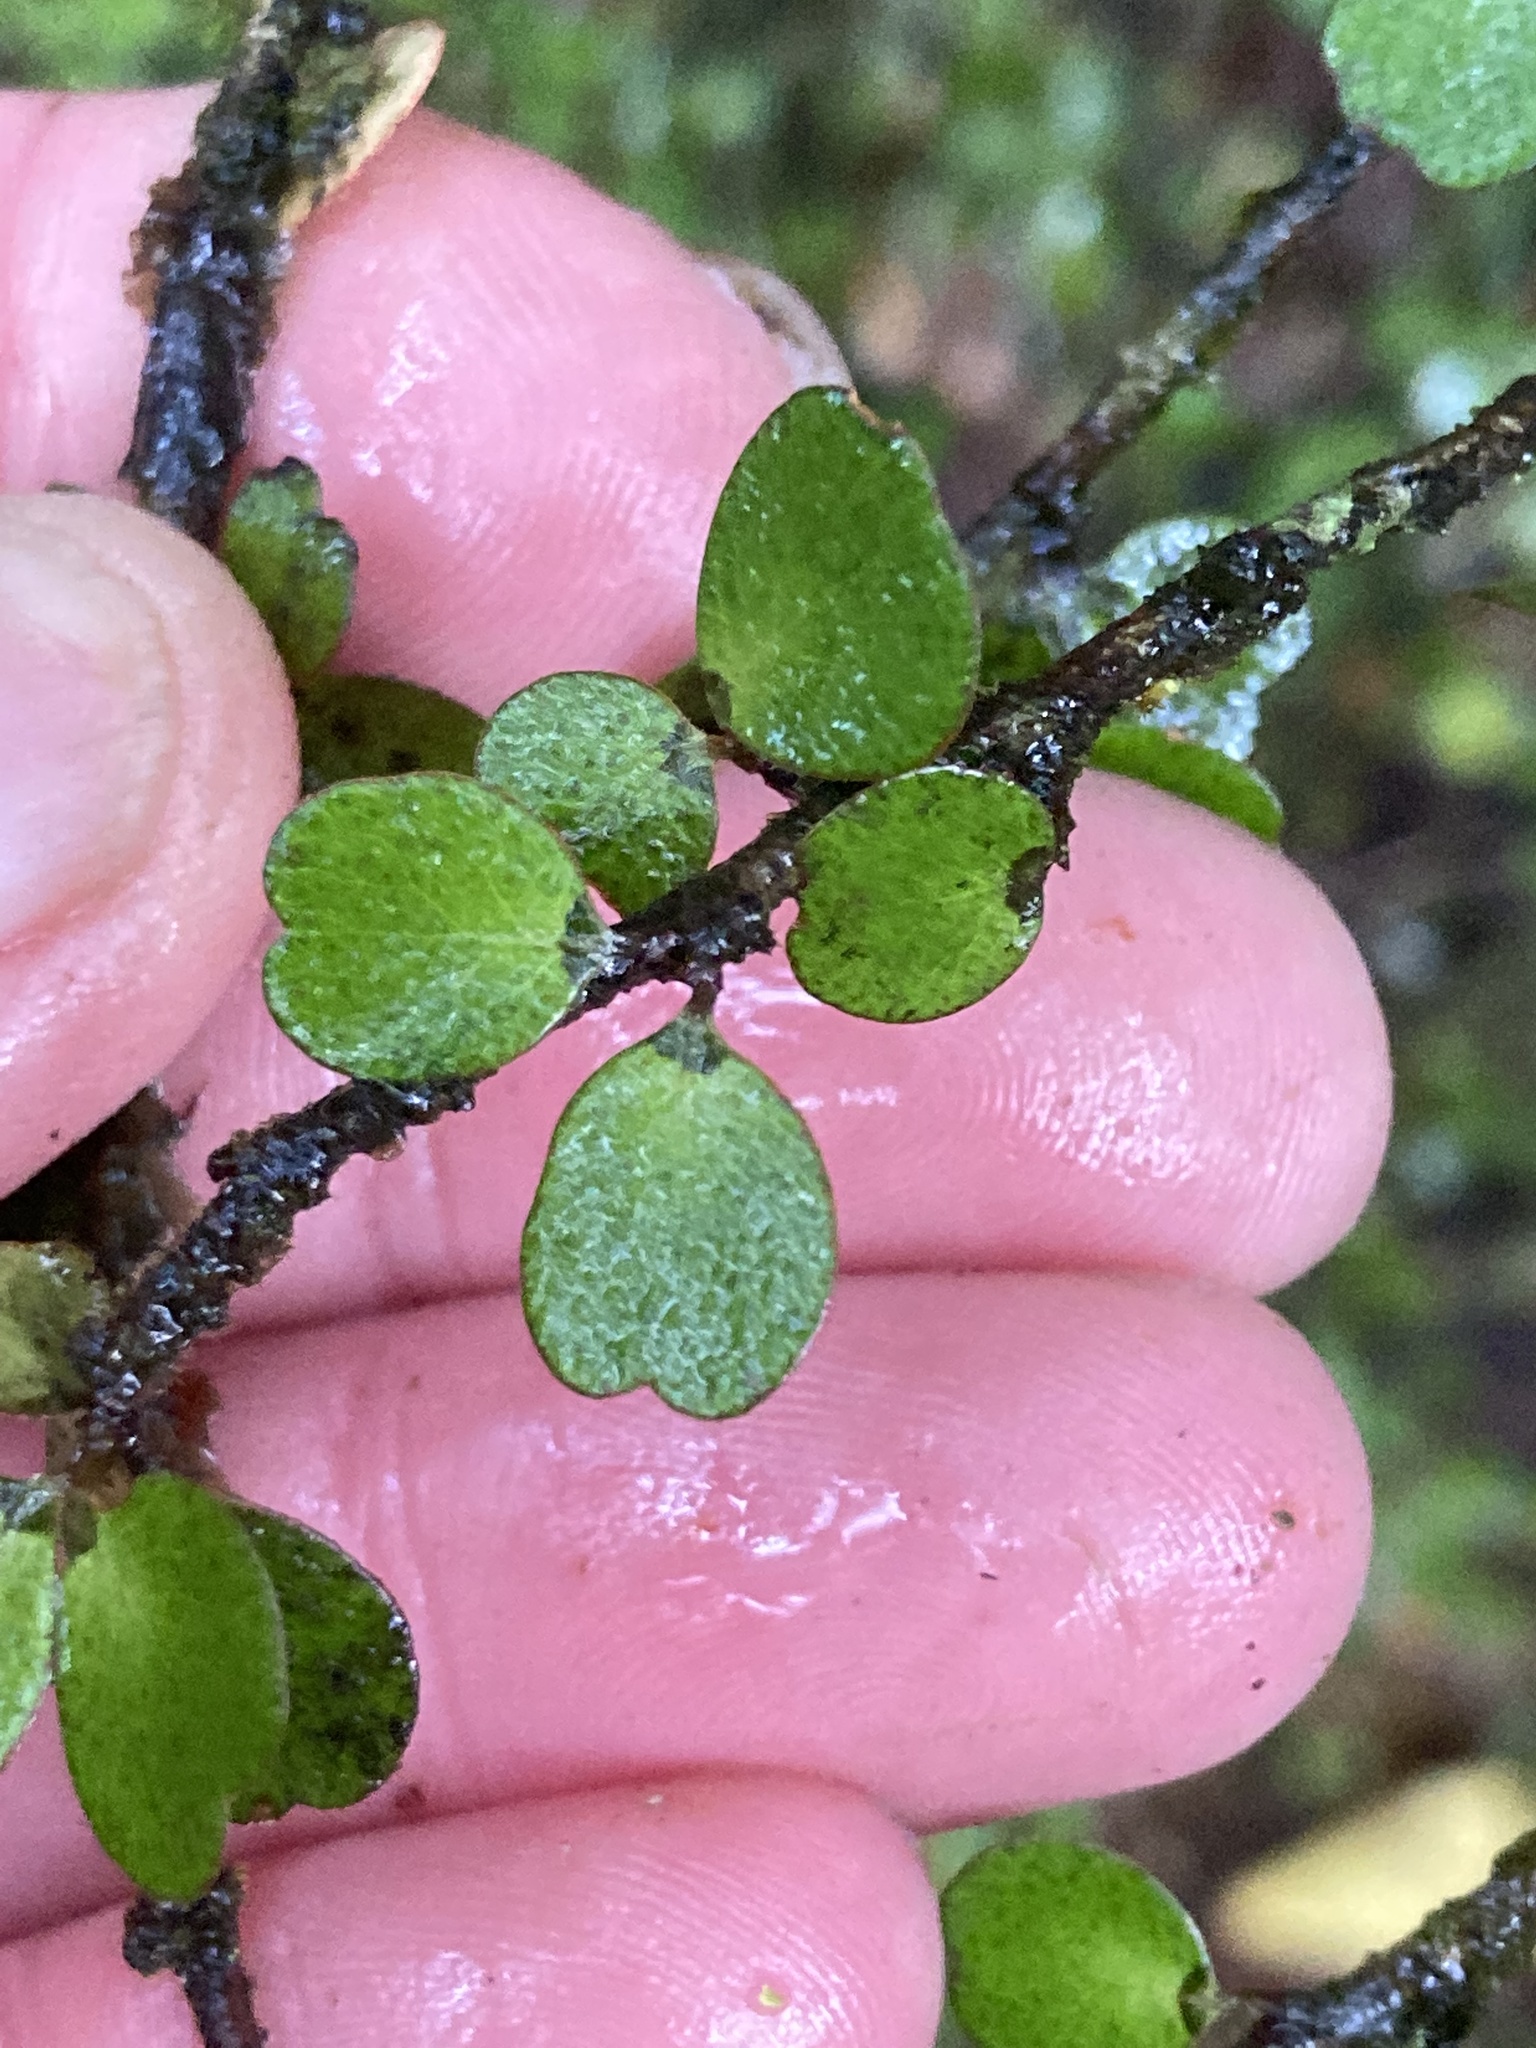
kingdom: Plantae
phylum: Tracheophyta
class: Magnoliopsida
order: Ericales
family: Primulaceae
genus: Myrsine
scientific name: Myrsine divaricata
